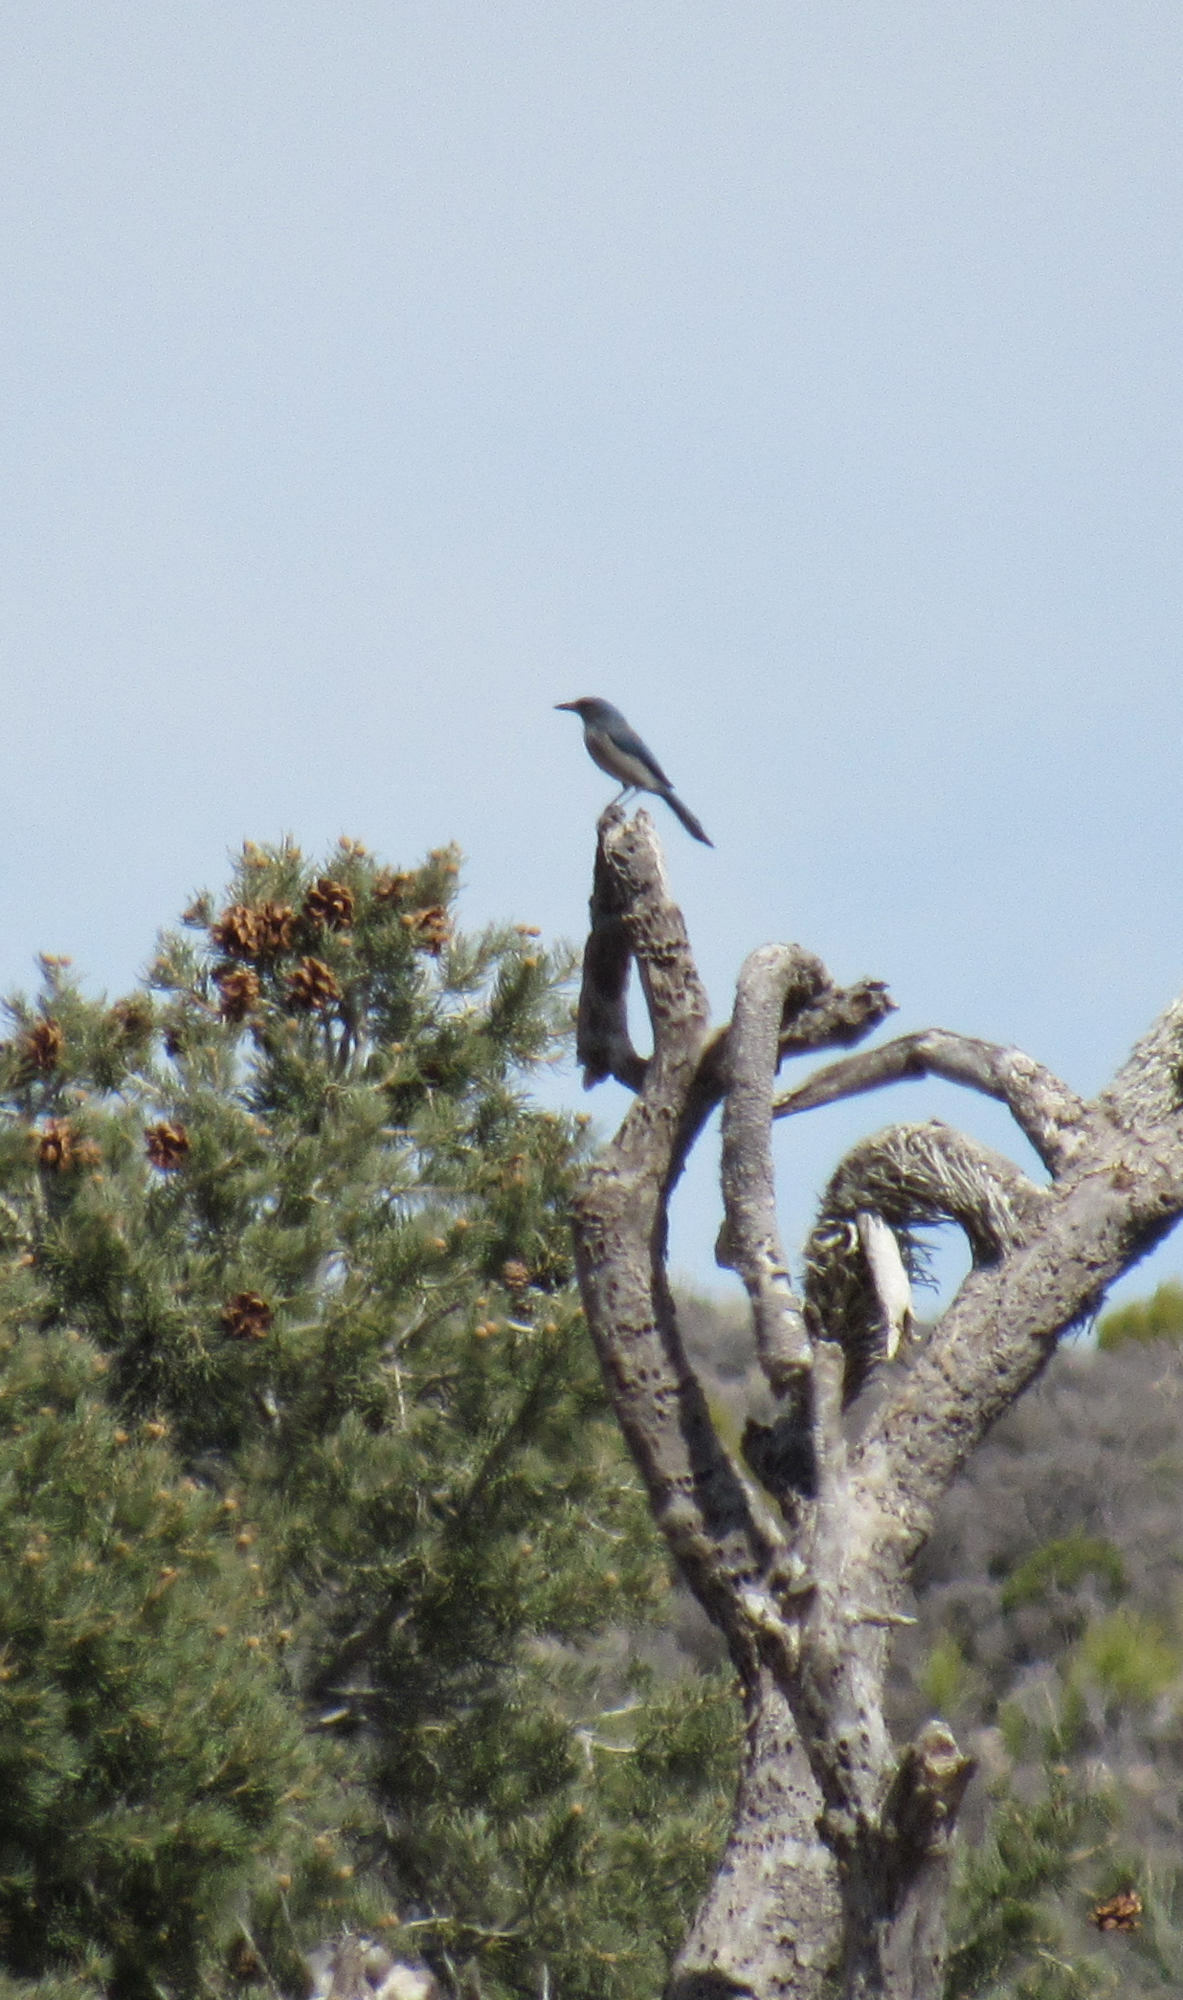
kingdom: Animalia
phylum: Chordata
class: Aves
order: Passeriformes
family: Corvidae
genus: Aphelocoma
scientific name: Aphelocoma woodhouseii
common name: Woodhouse's scrub-jay
